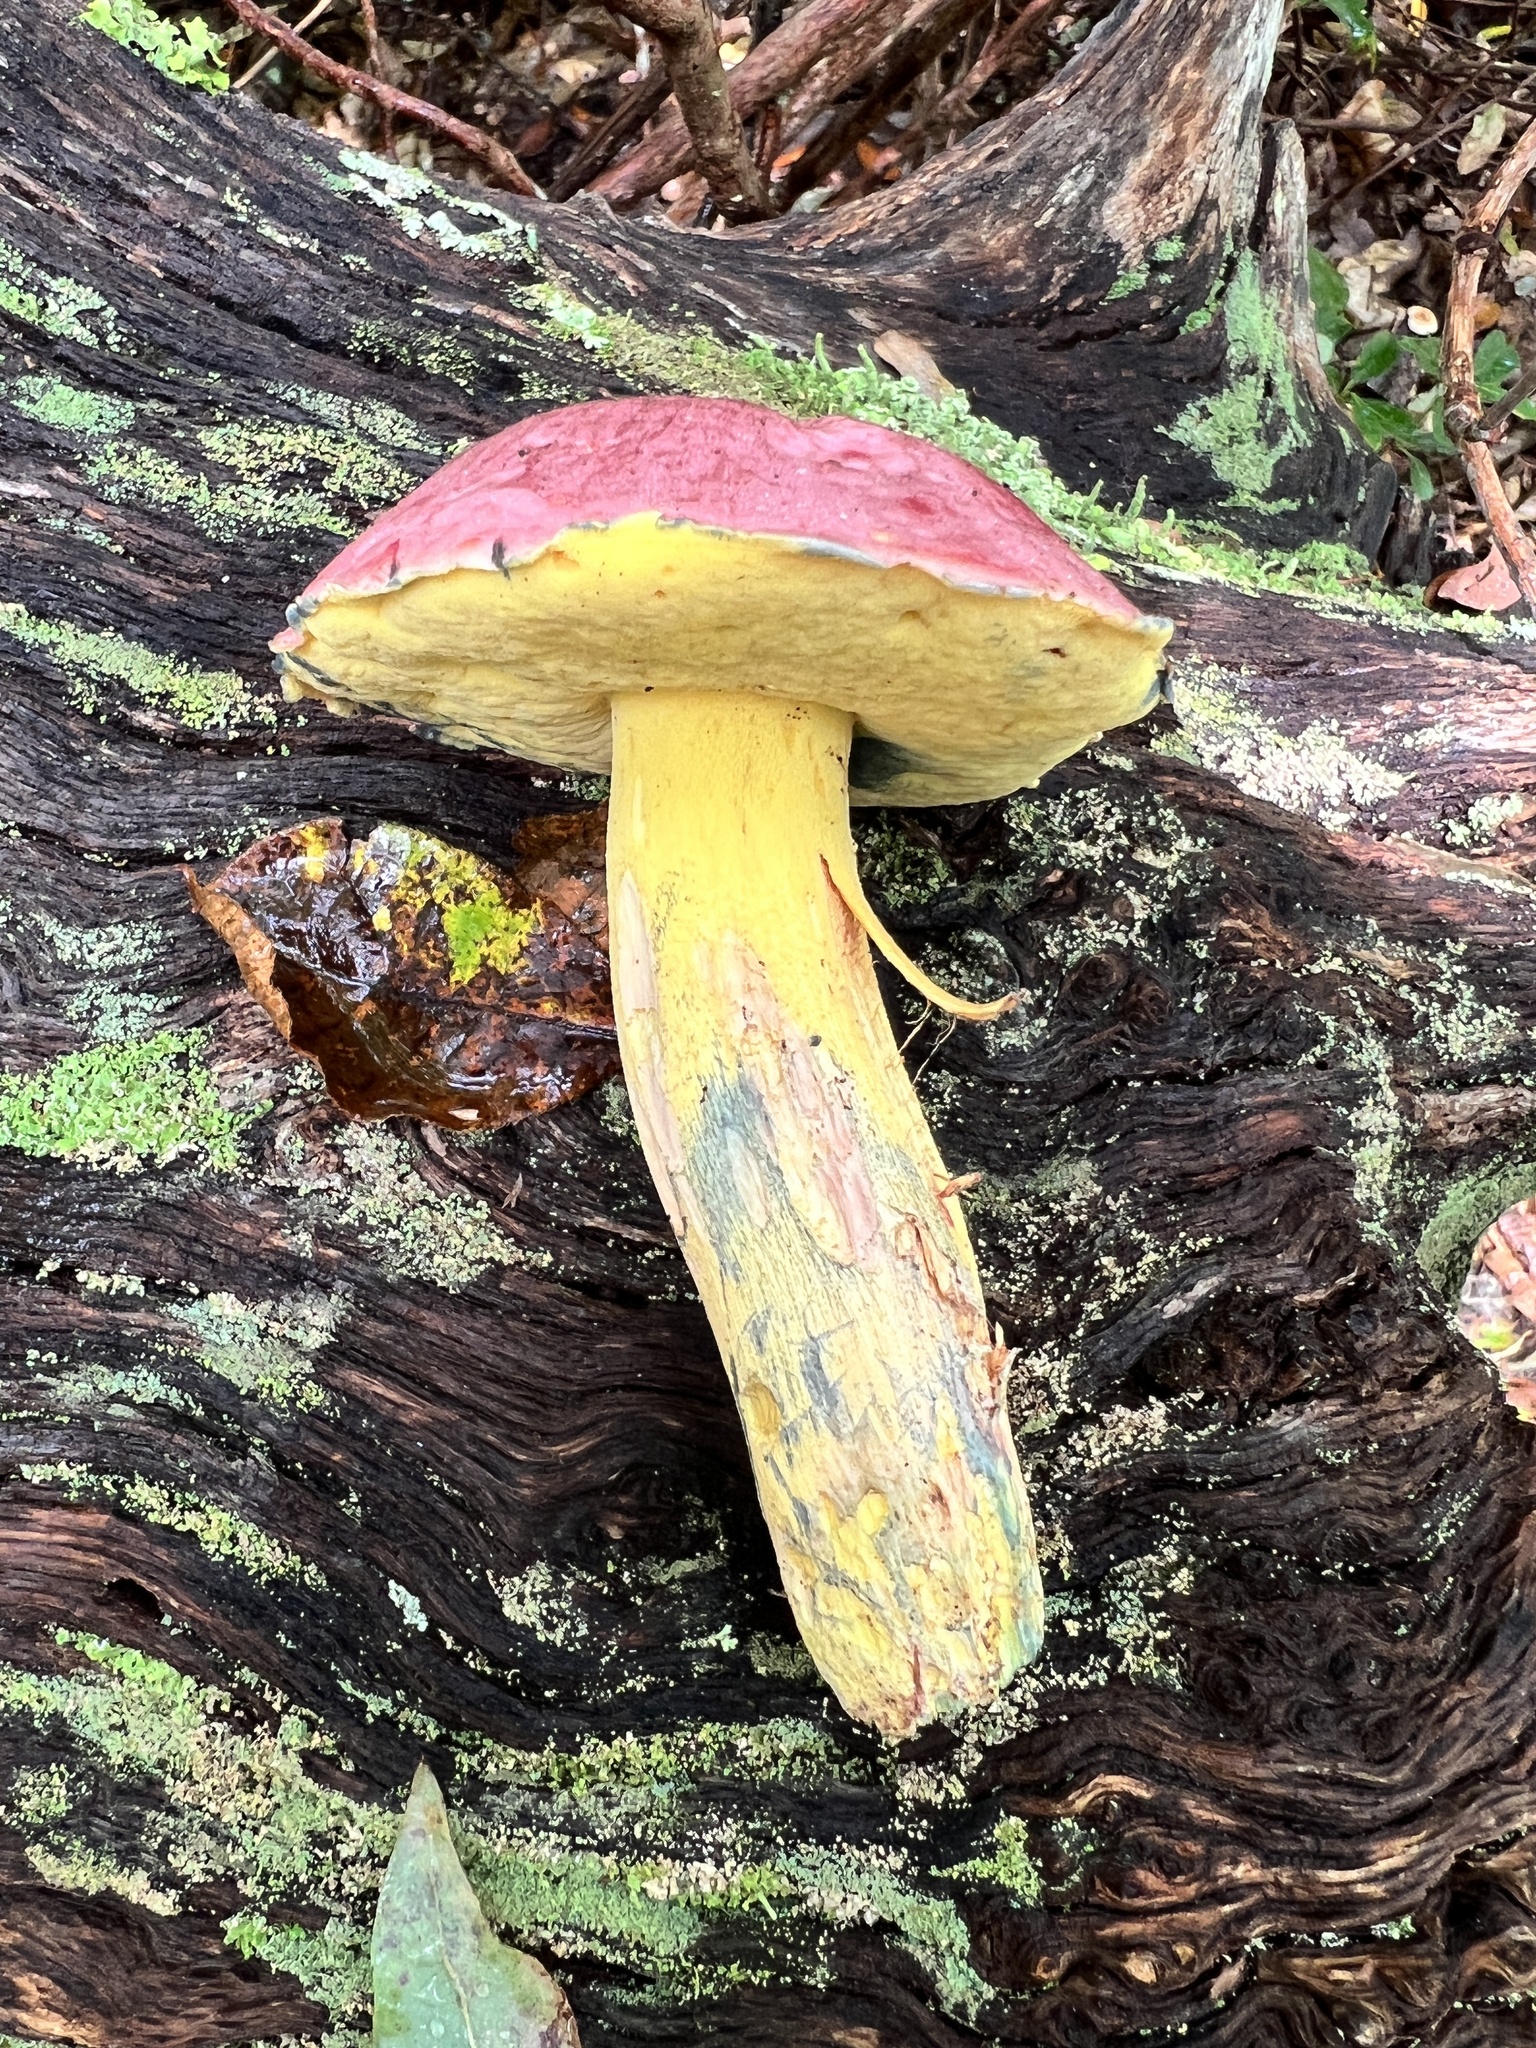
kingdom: Fungi
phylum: Basidiomycota
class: Agaricomycetes
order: Boletales
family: Boletaceae
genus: Butyriboletus
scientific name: Butyriboletus roseopurpureus
